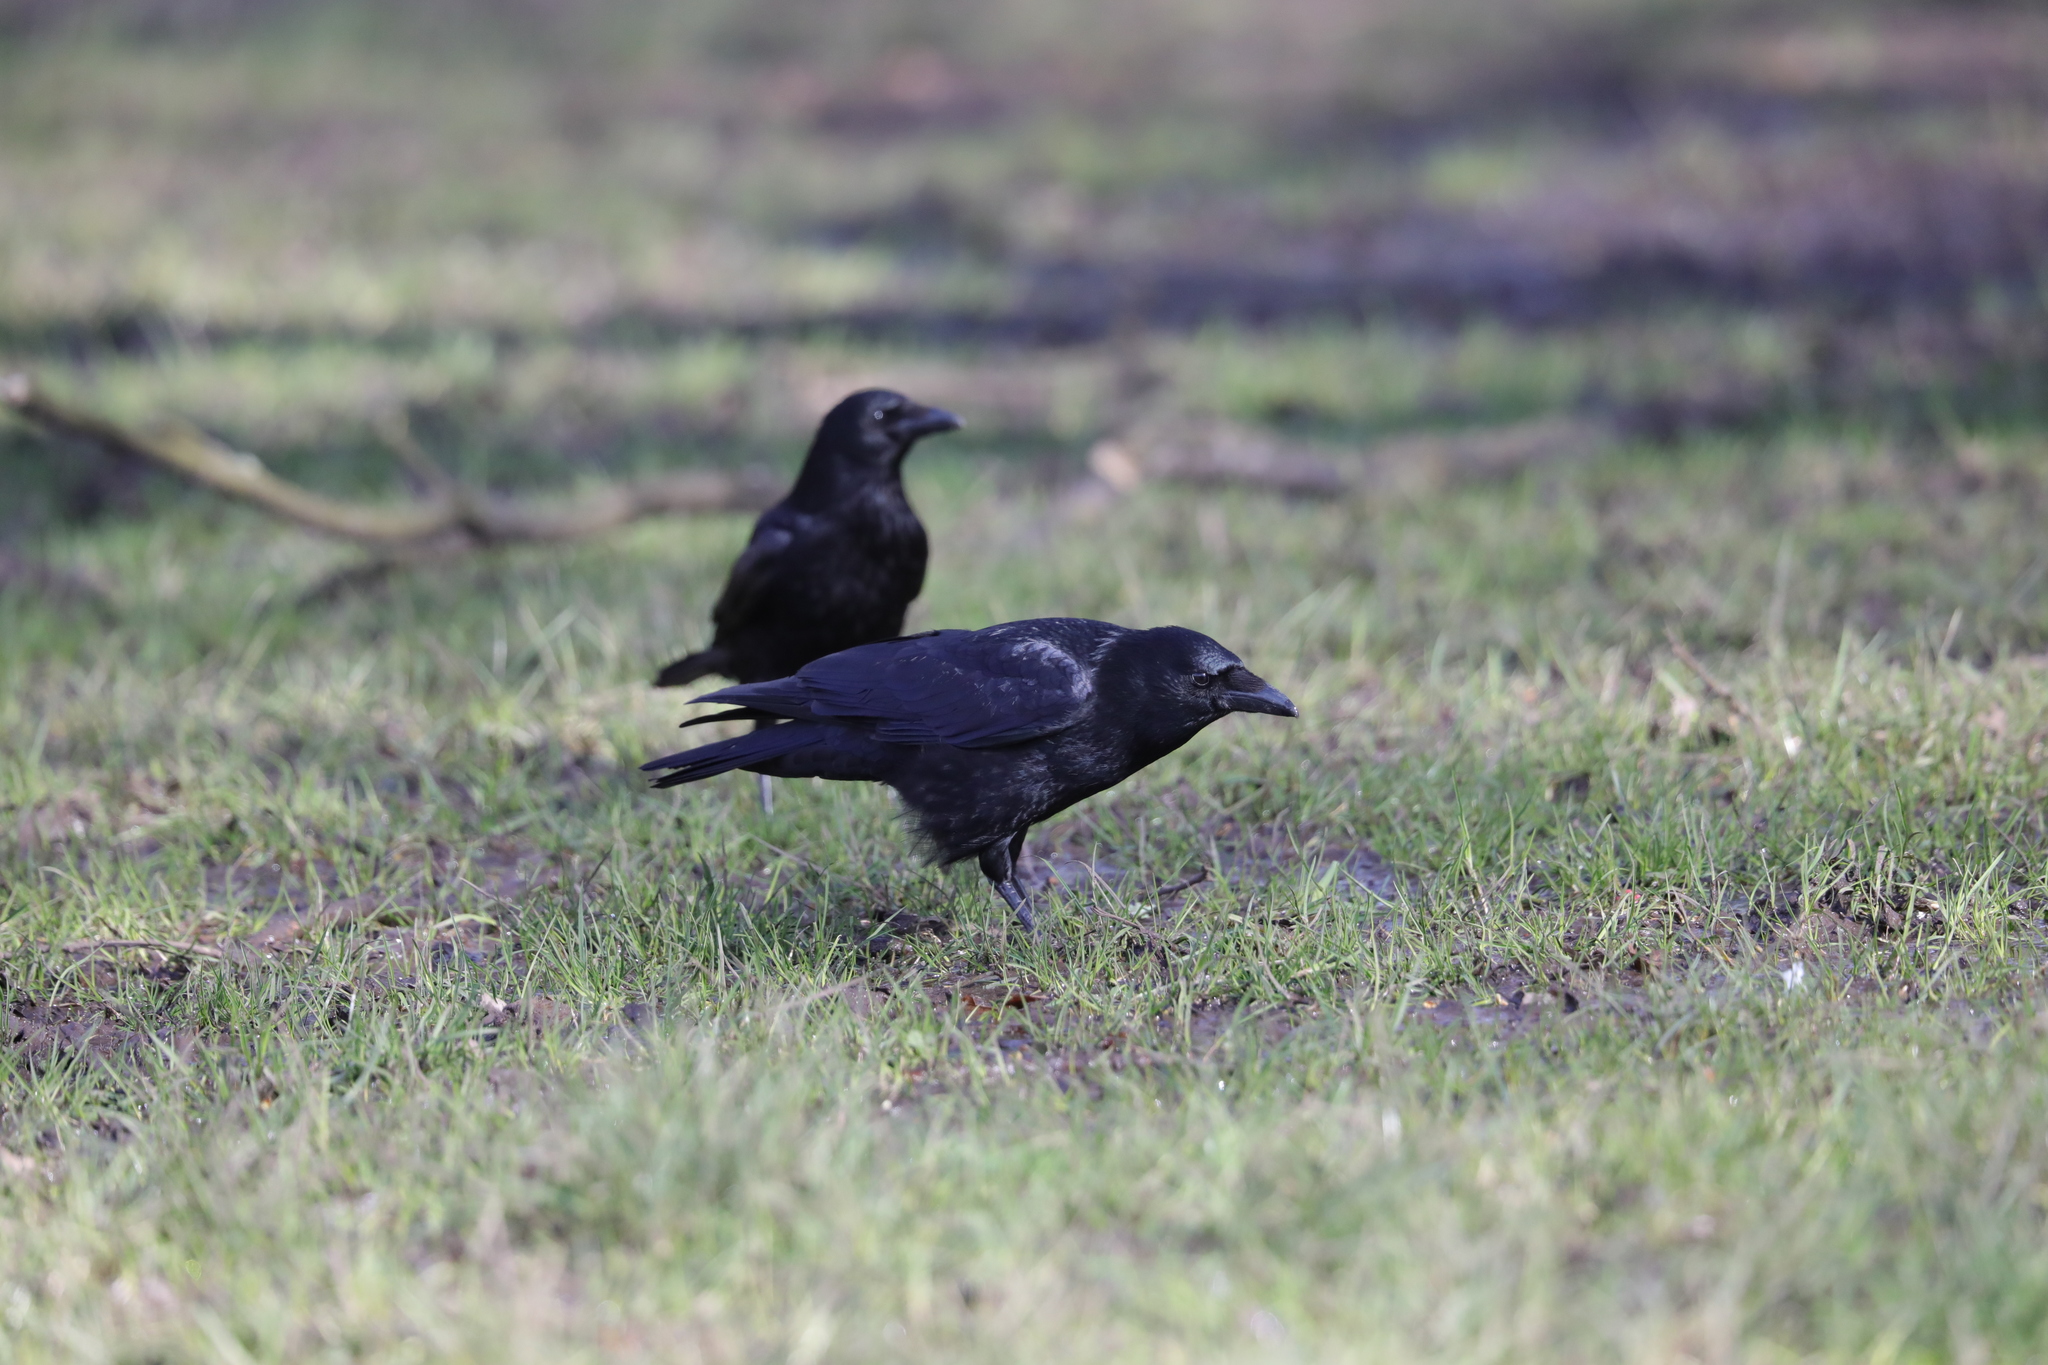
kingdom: Animalia
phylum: Chordata
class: Aves
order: Passeriformes
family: Corvidae
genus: Corvus
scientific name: Corvus corone
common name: Carrion crow
